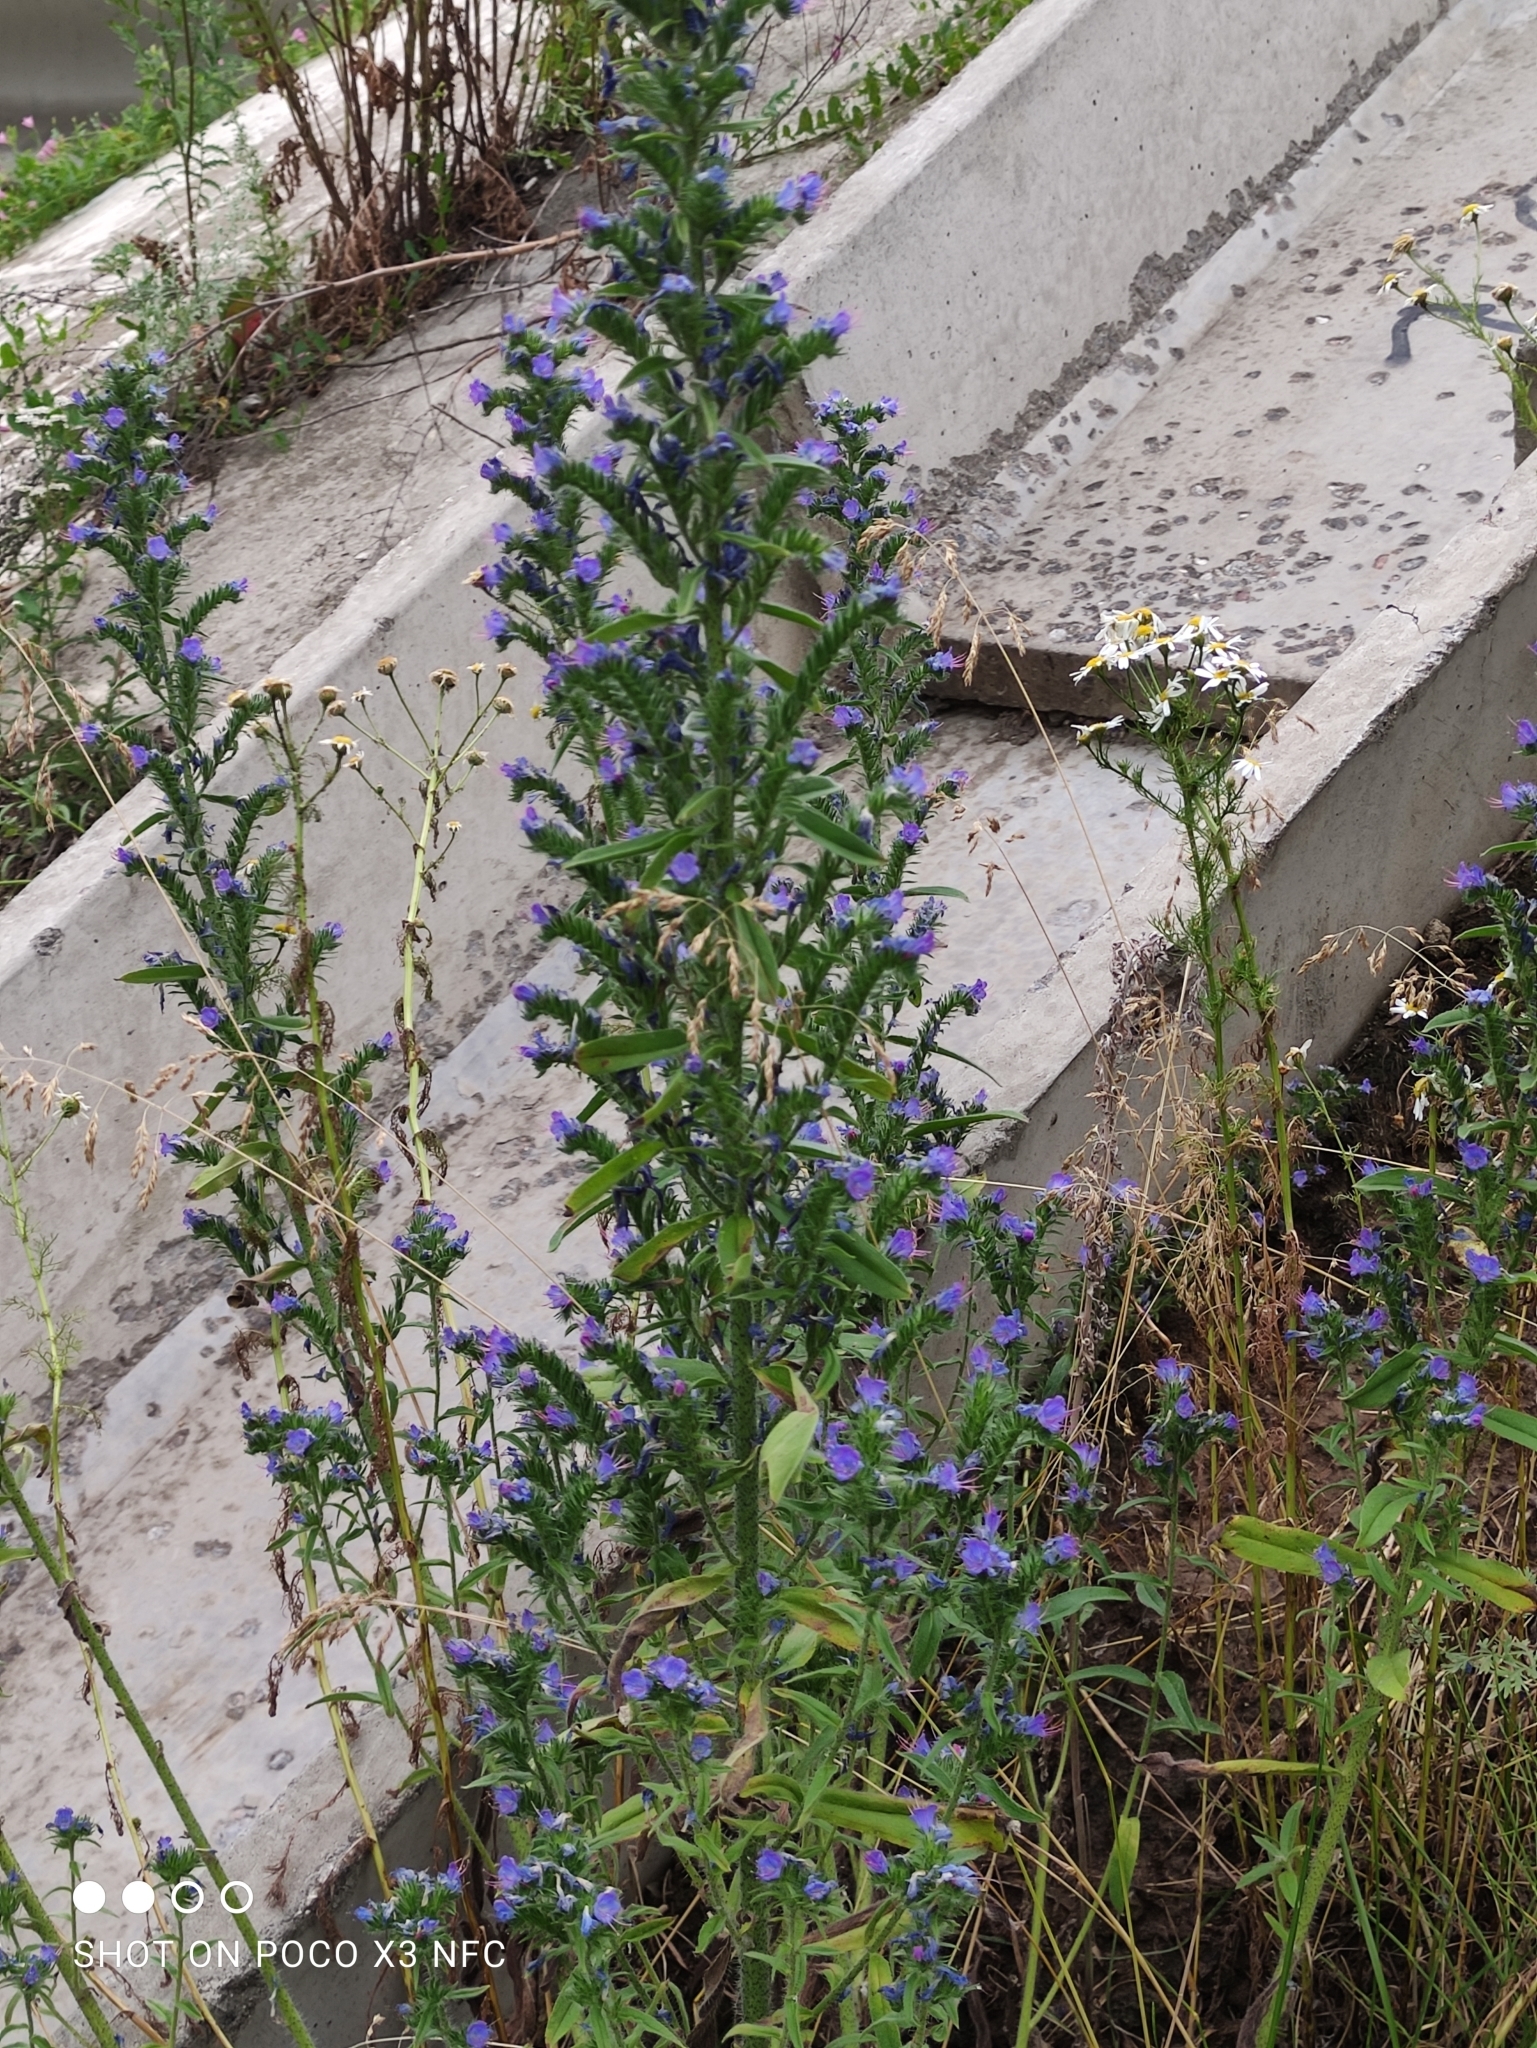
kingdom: Plantae
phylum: Tracheophyta
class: Magnoliopsida
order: Boraginales
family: Boraginaceae
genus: Echium
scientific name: Echium vulgare
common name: Common viper's bugloss
